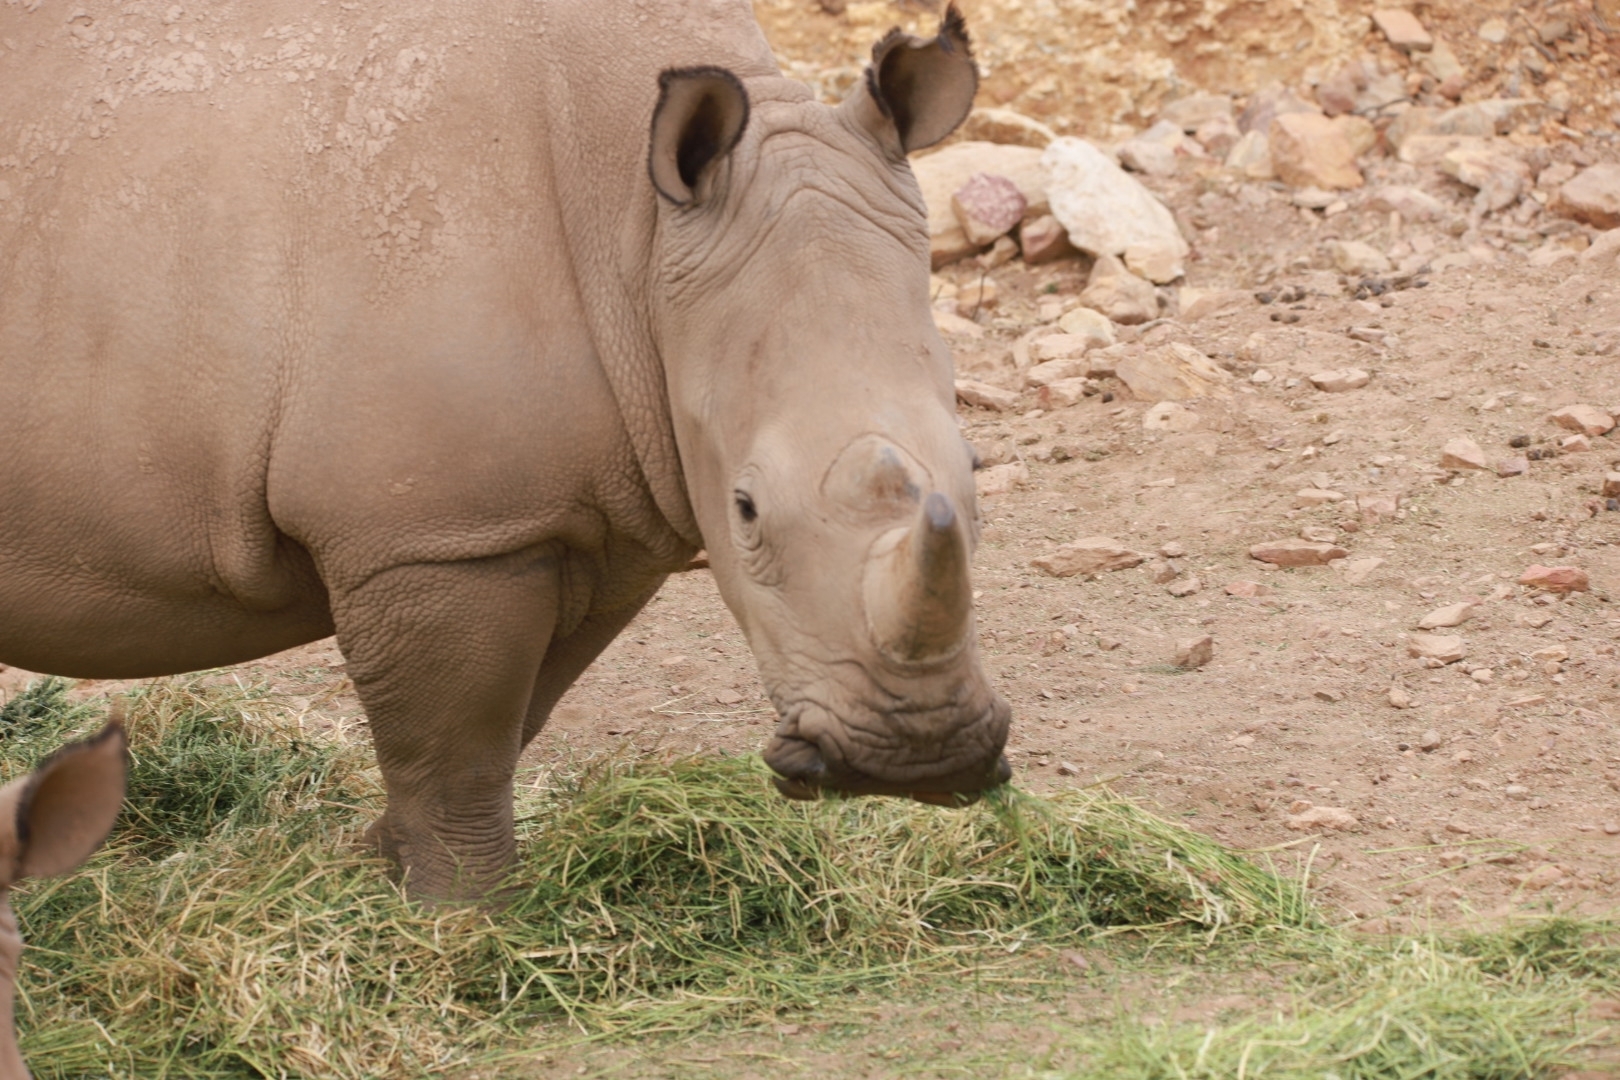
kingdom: Animalia
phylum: Chordata
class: Mammalia
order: Perissodactyla
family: Rhinocerotidae
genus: Ceratotherium
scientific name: Ceratotherium simum
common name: White rhinoceros
